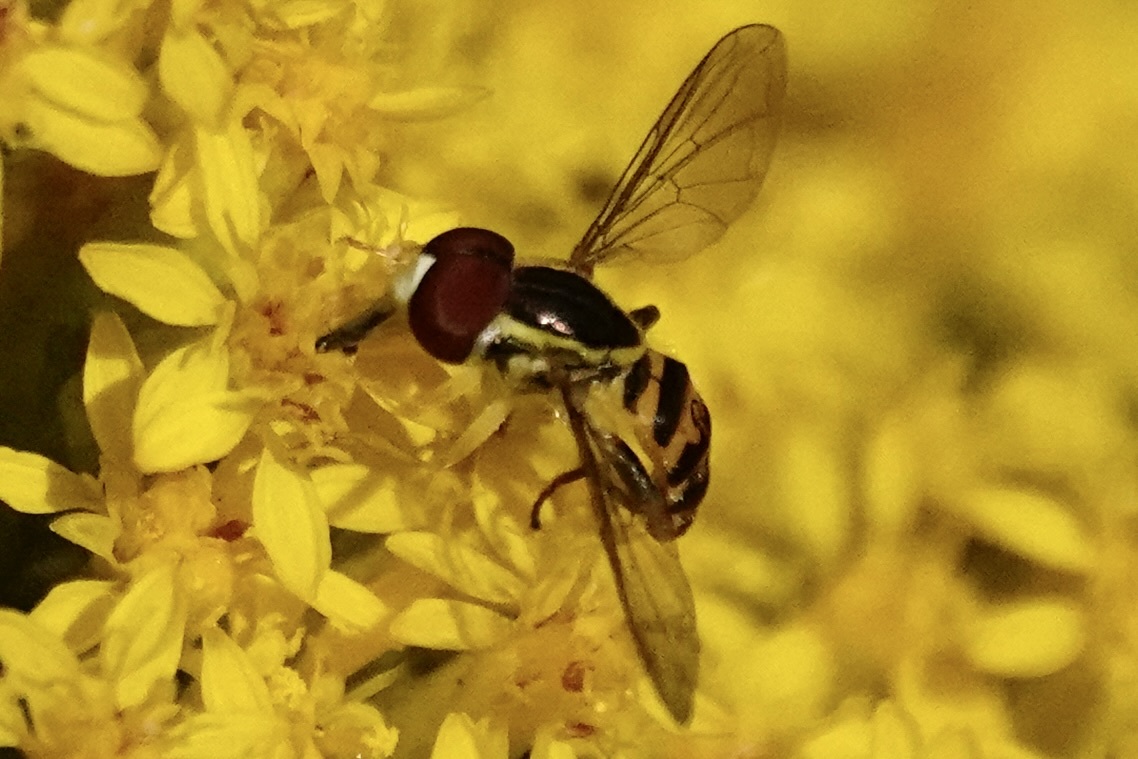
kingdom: Animalia
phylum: Arthropoda
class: Insecta
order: Diptera
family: Syrphidae
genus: Toxomerus
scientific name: Toxomerus geminatus
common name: Eastern calligrapher
